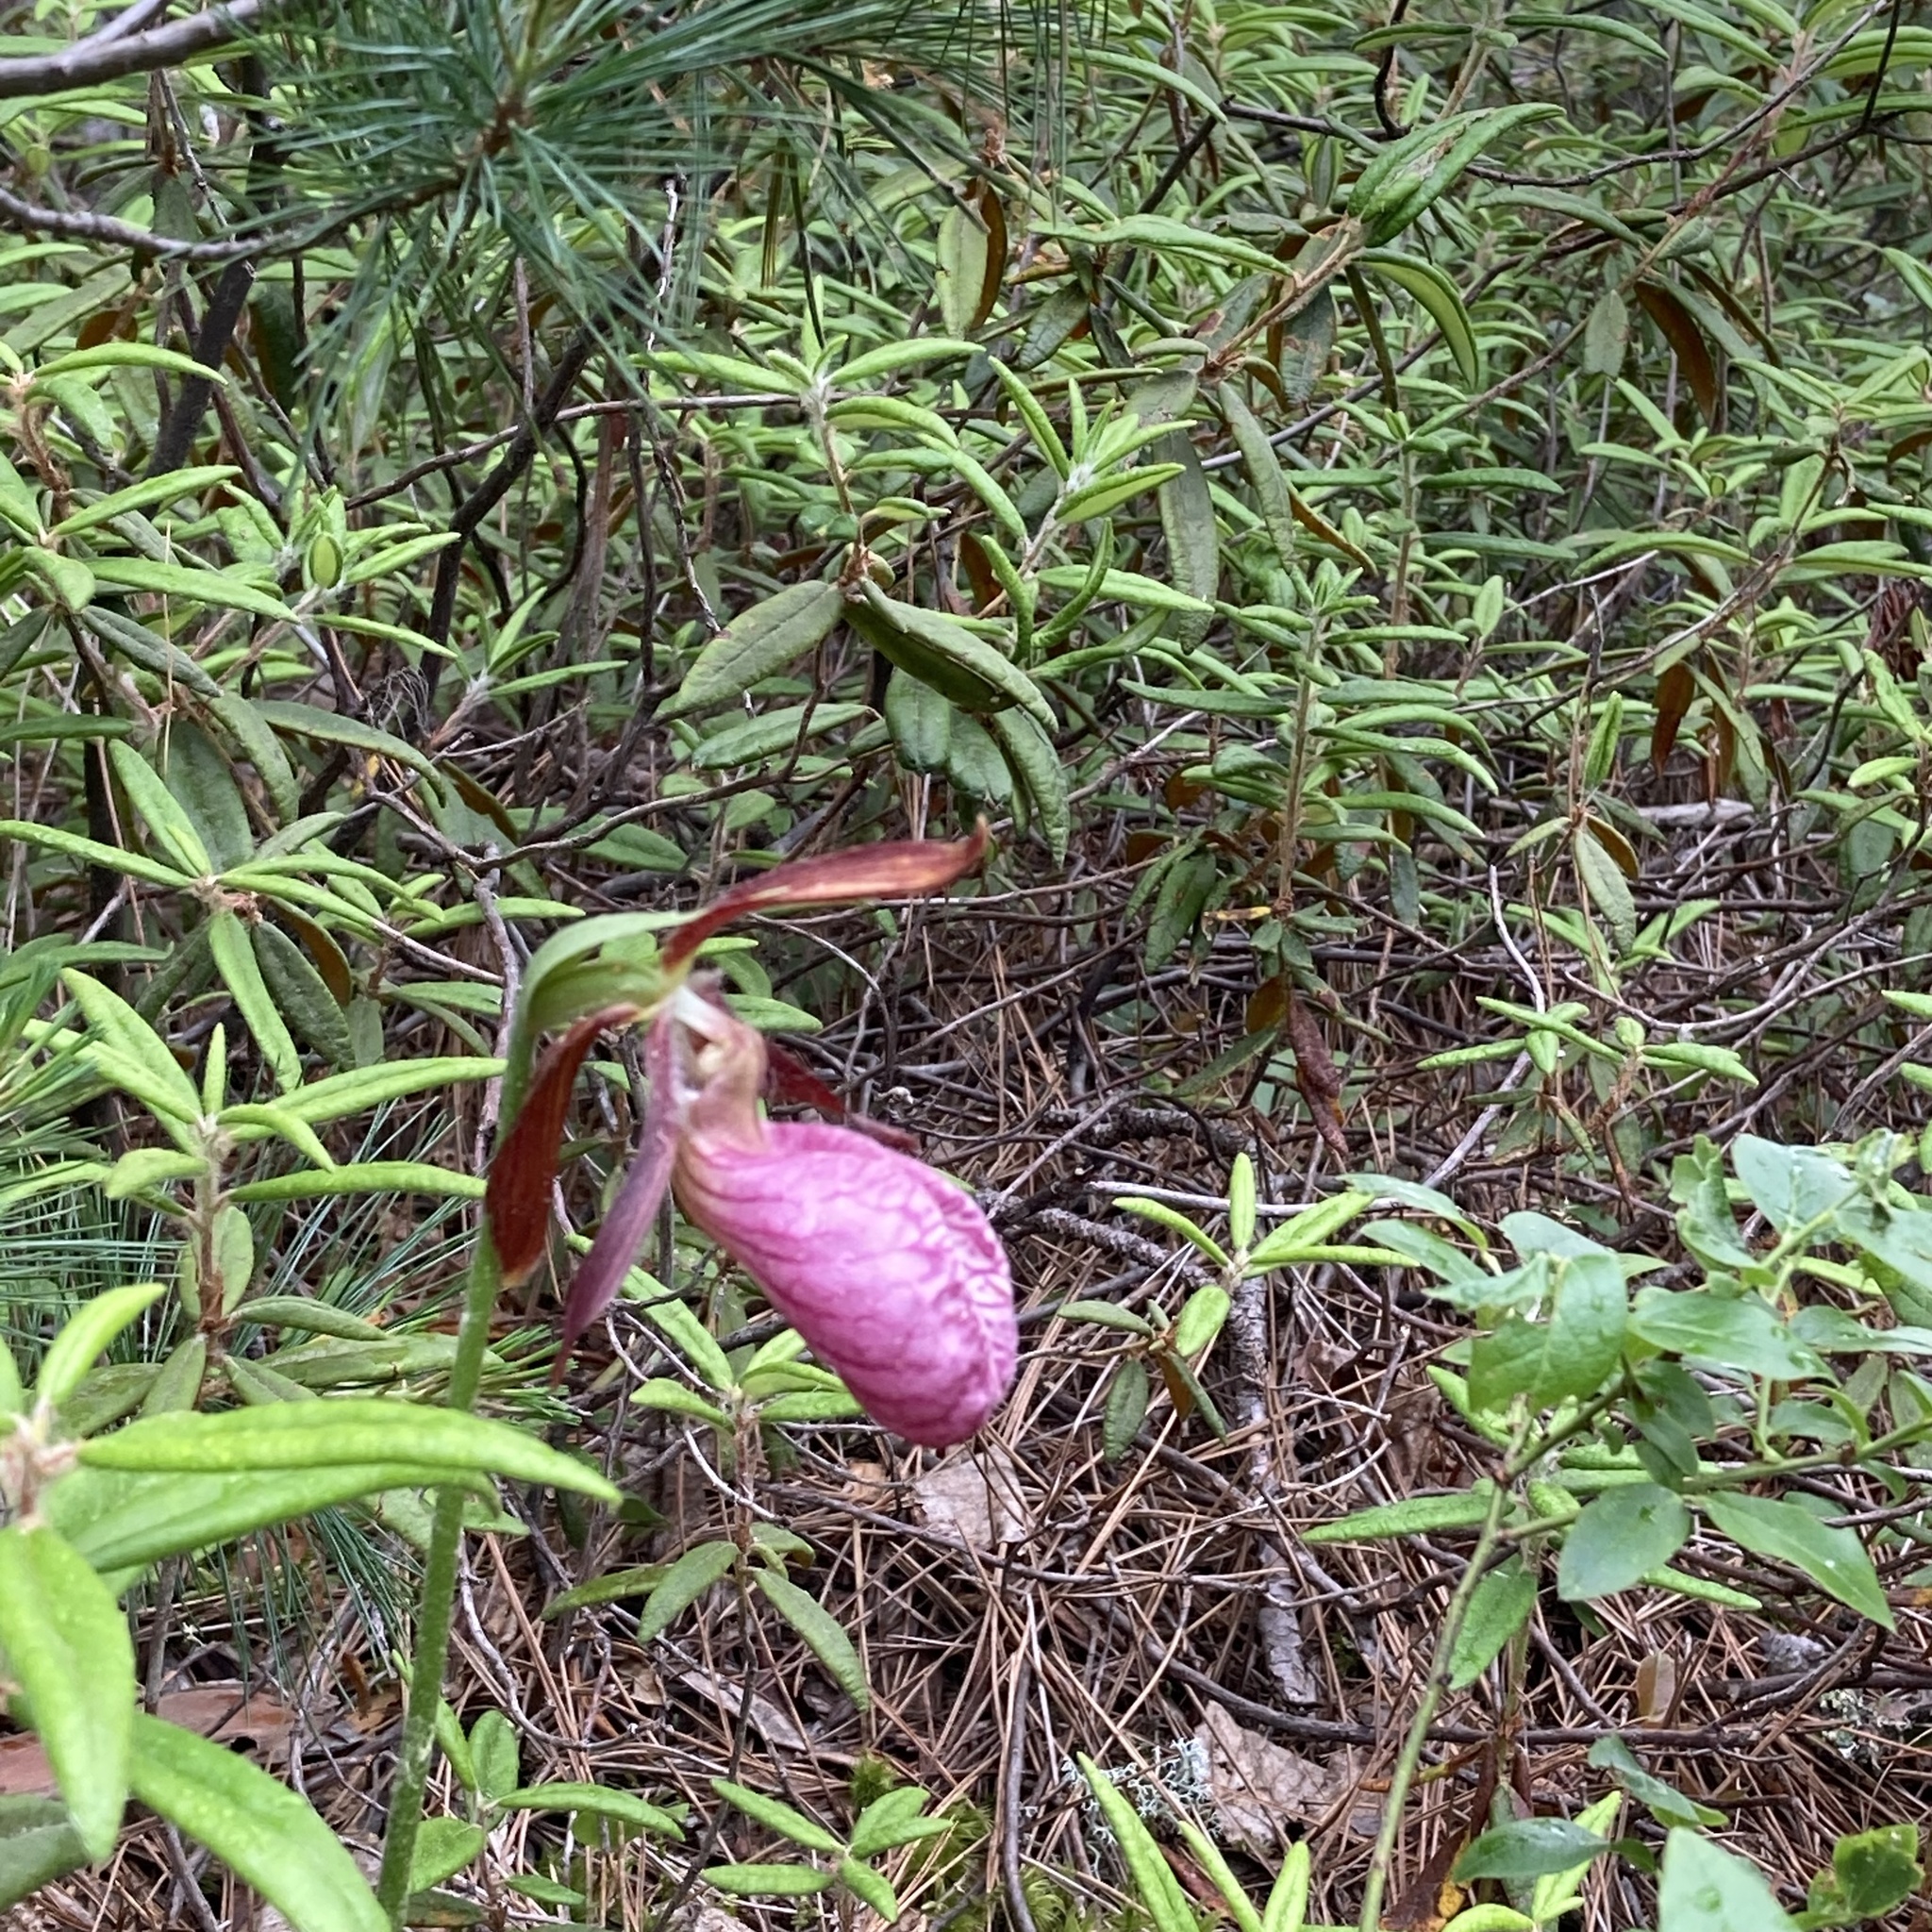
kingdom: Plantae
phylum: Tracheophyta
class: Liliopsida
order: Asparagales
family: Orchidaceae
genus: Cypripedium
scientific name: Cypripedium acaule
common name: Pink lady's-slipper
